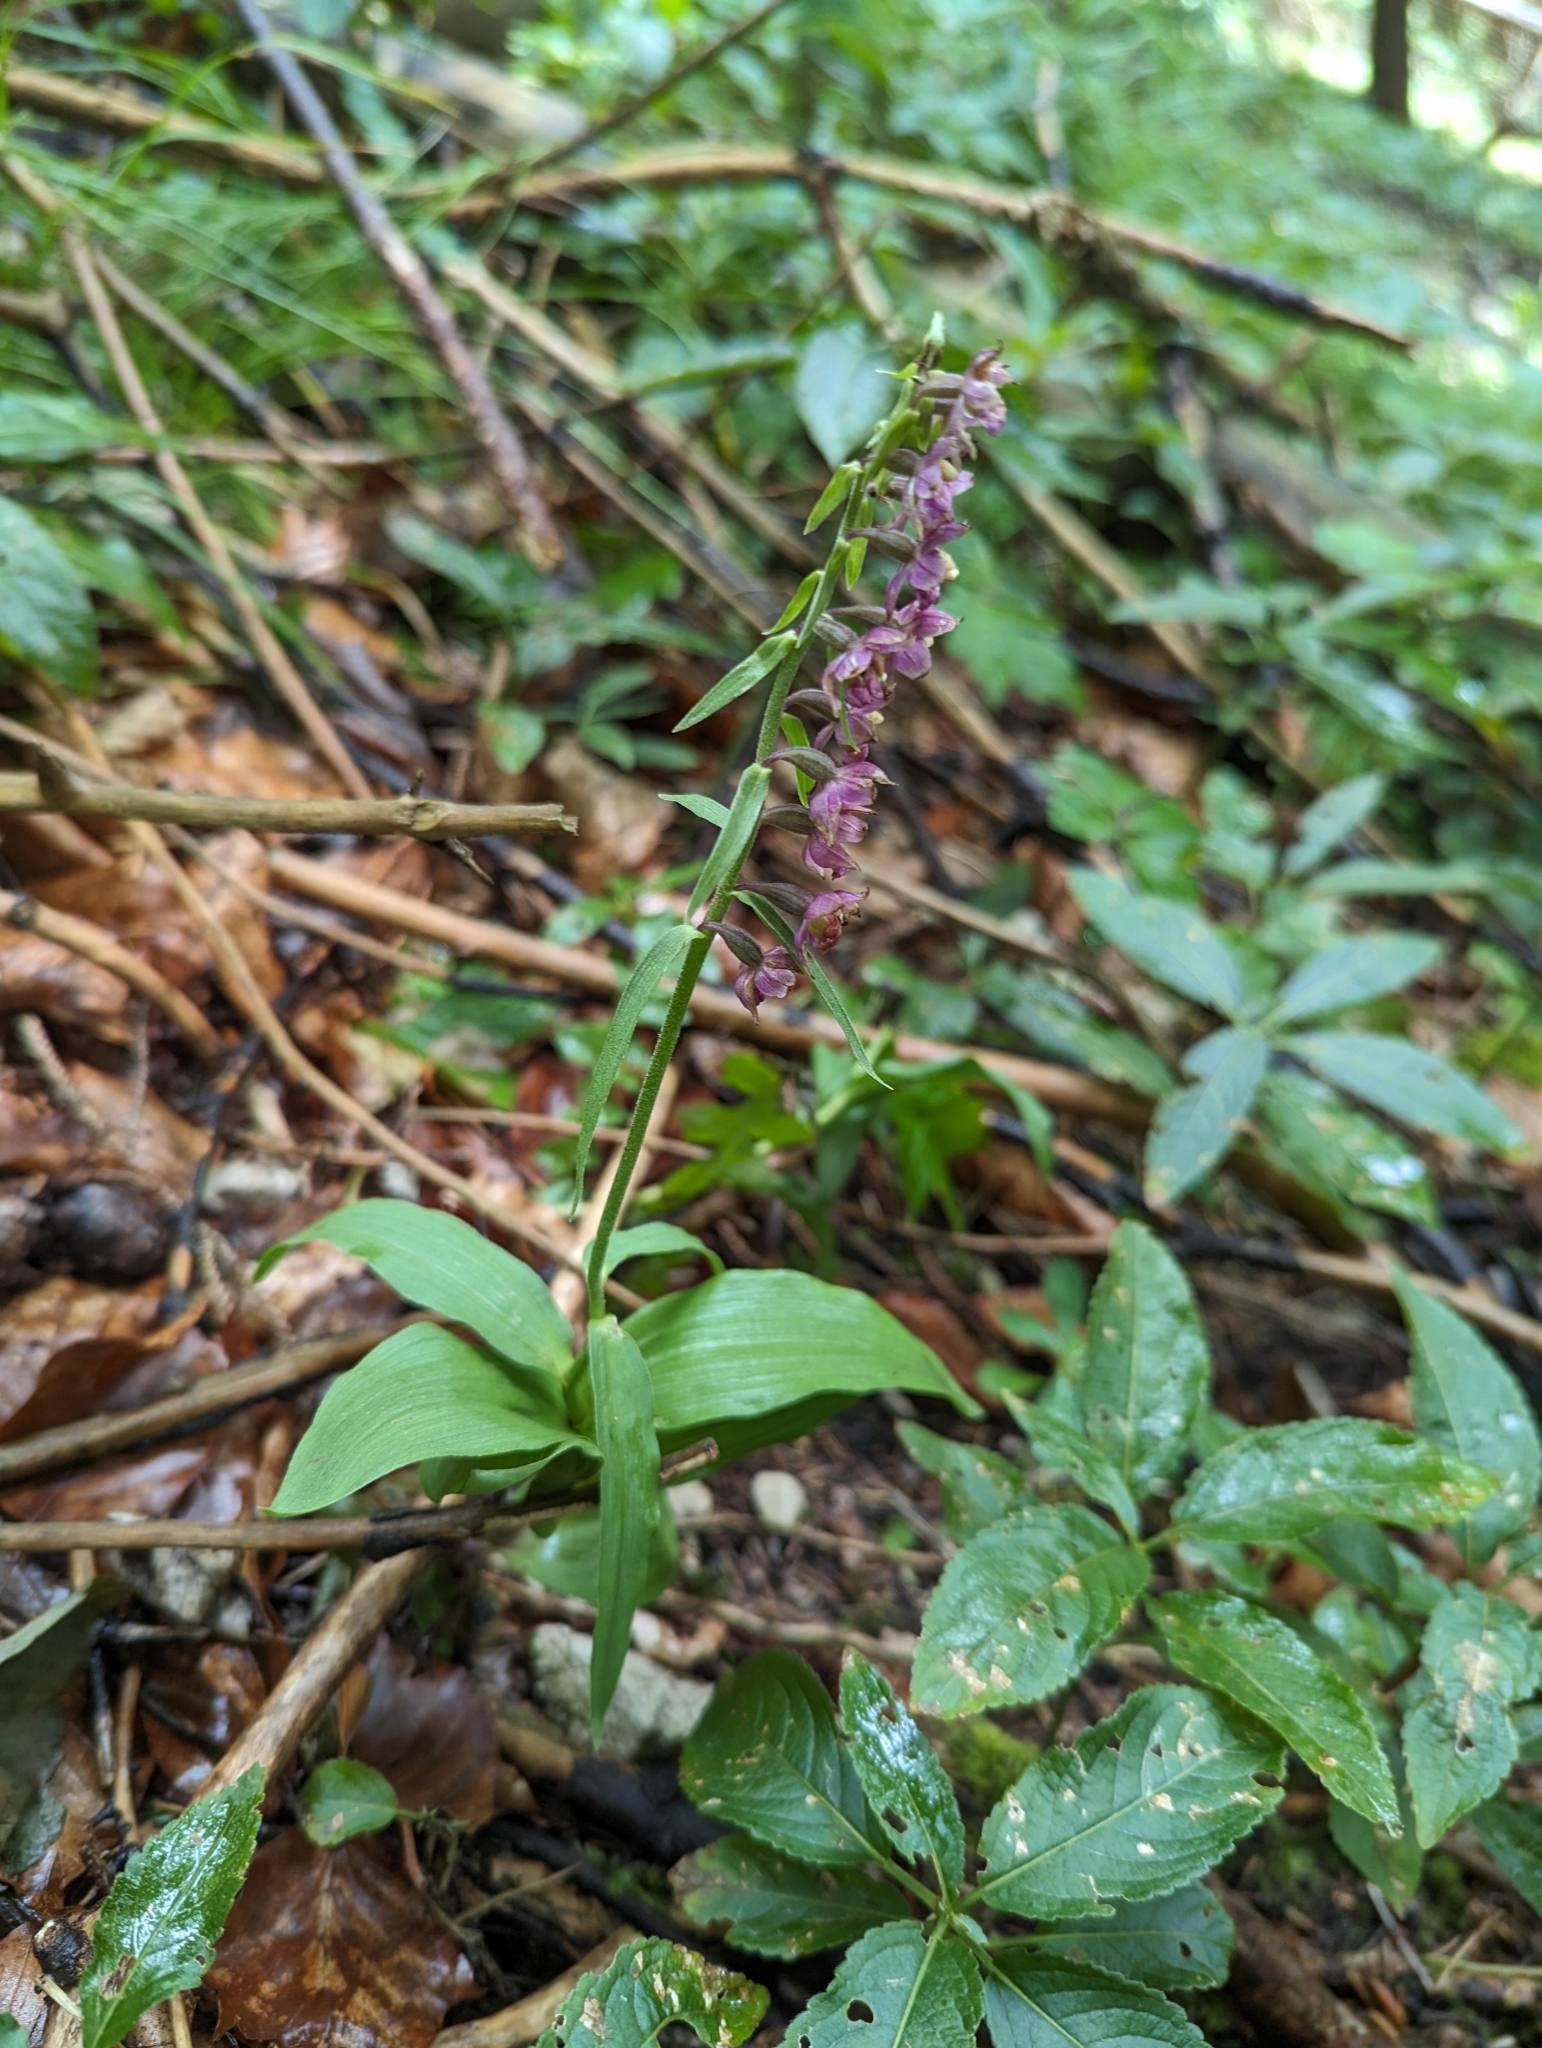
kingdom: Plantae
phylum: Tracheophyta
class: Liliopsida
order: Asparagales
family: Orchidaceae
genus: Epipactis
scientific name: Epipactis atrorubens
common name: Dark-red helleborine
